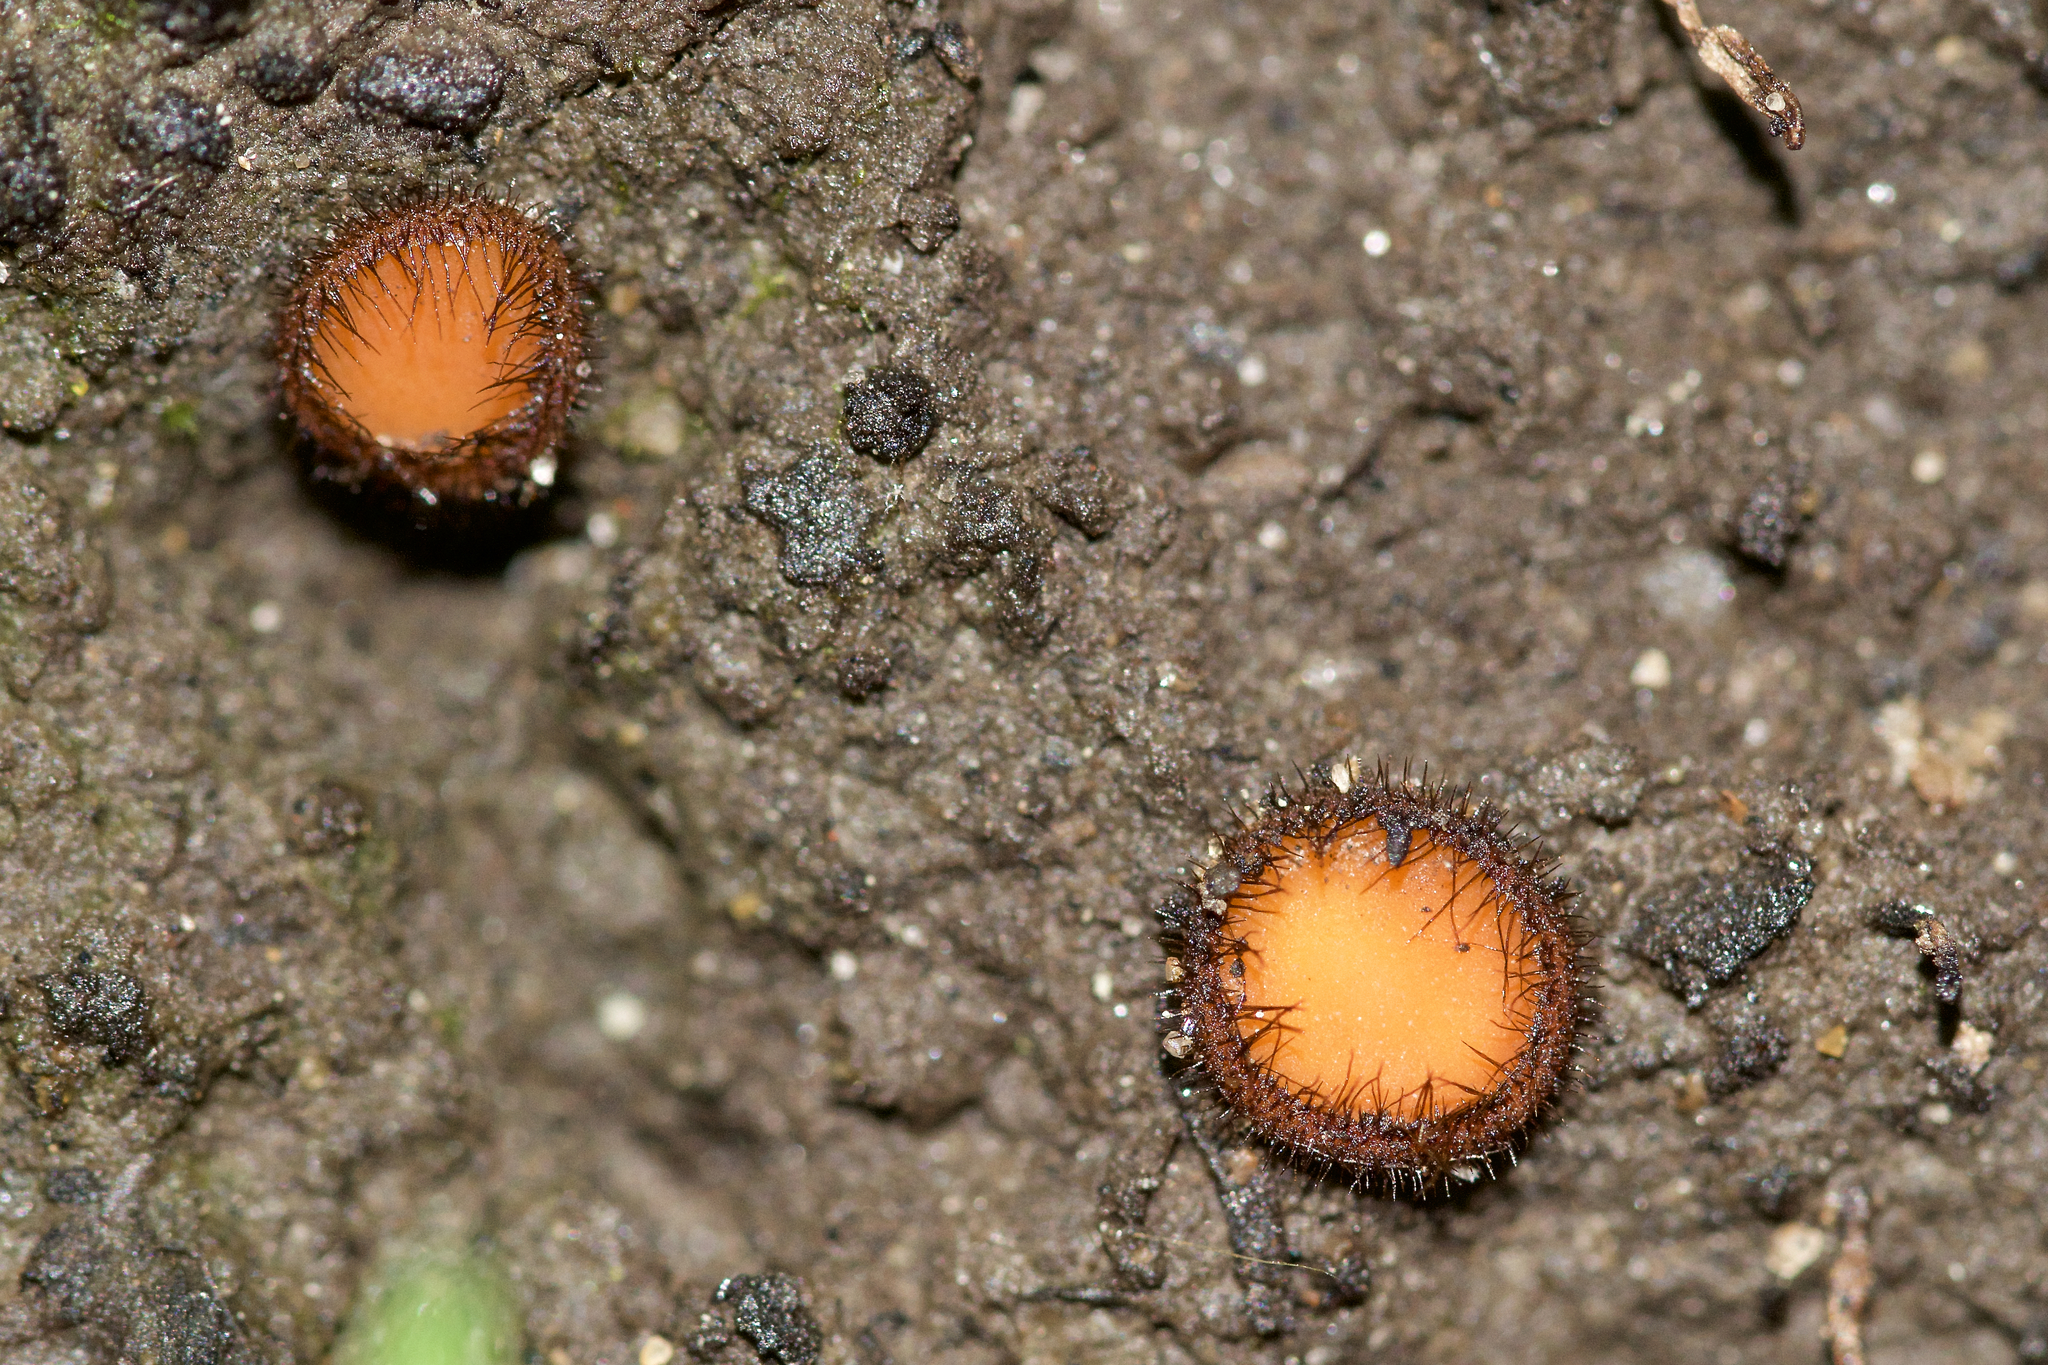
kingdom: Fungi
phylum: Ascomycota
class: Pezizomycetes
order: Pezizales
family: Pyronemataceae
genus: Scutellinia
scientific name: Scutellinia
